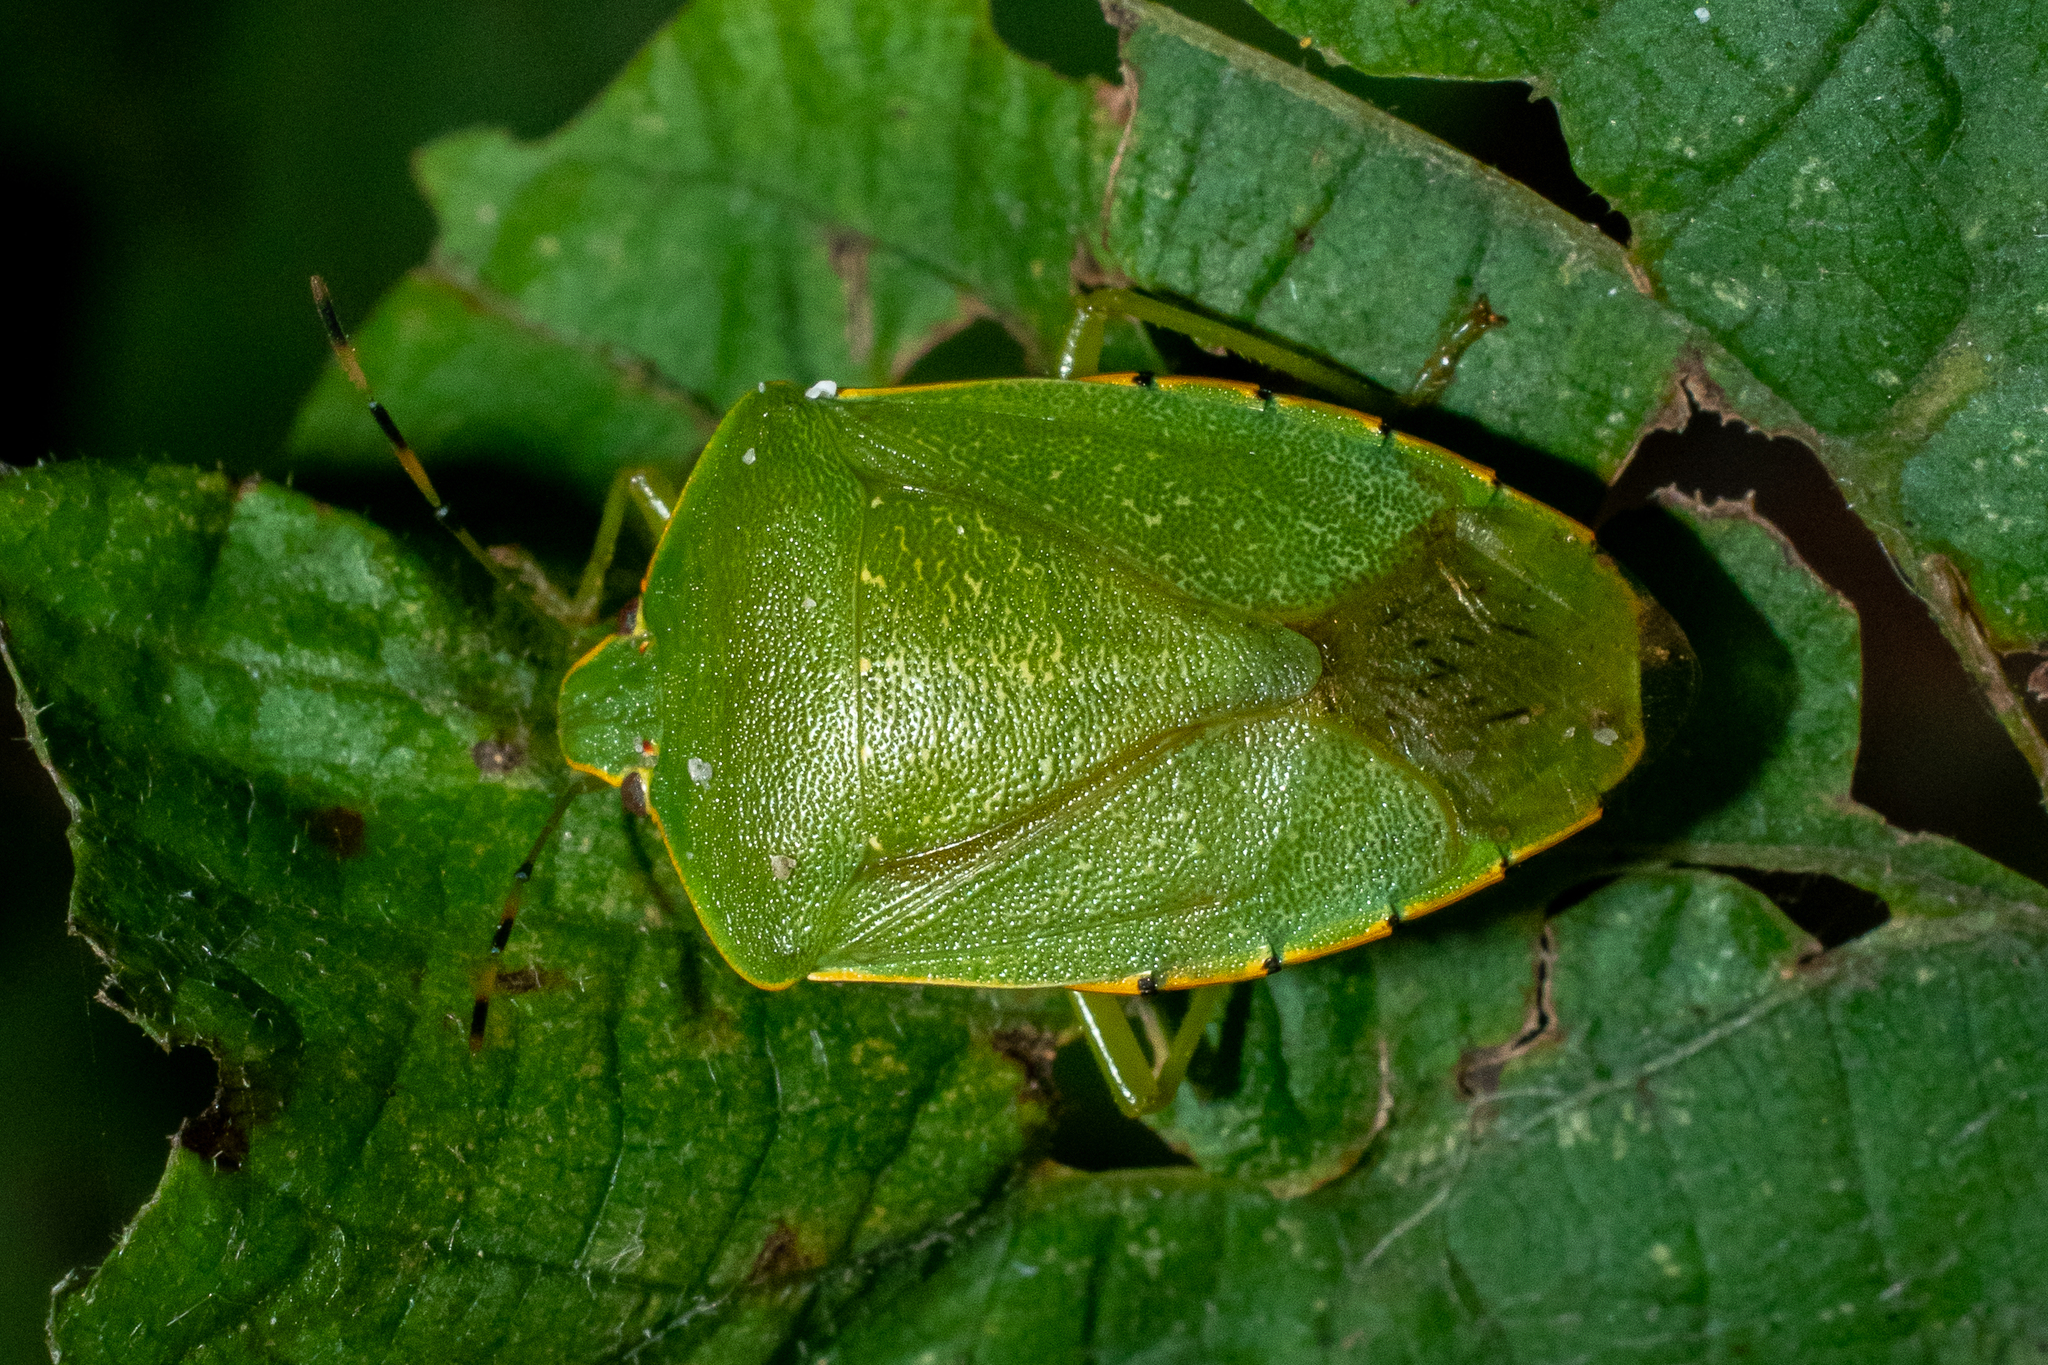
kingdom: Animalia
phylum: Arthropoda
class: Insecta
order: Hemiptera
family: Pentatomidae
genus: Chinavia
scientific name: Chinavia hilaris
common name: Green stink bug
